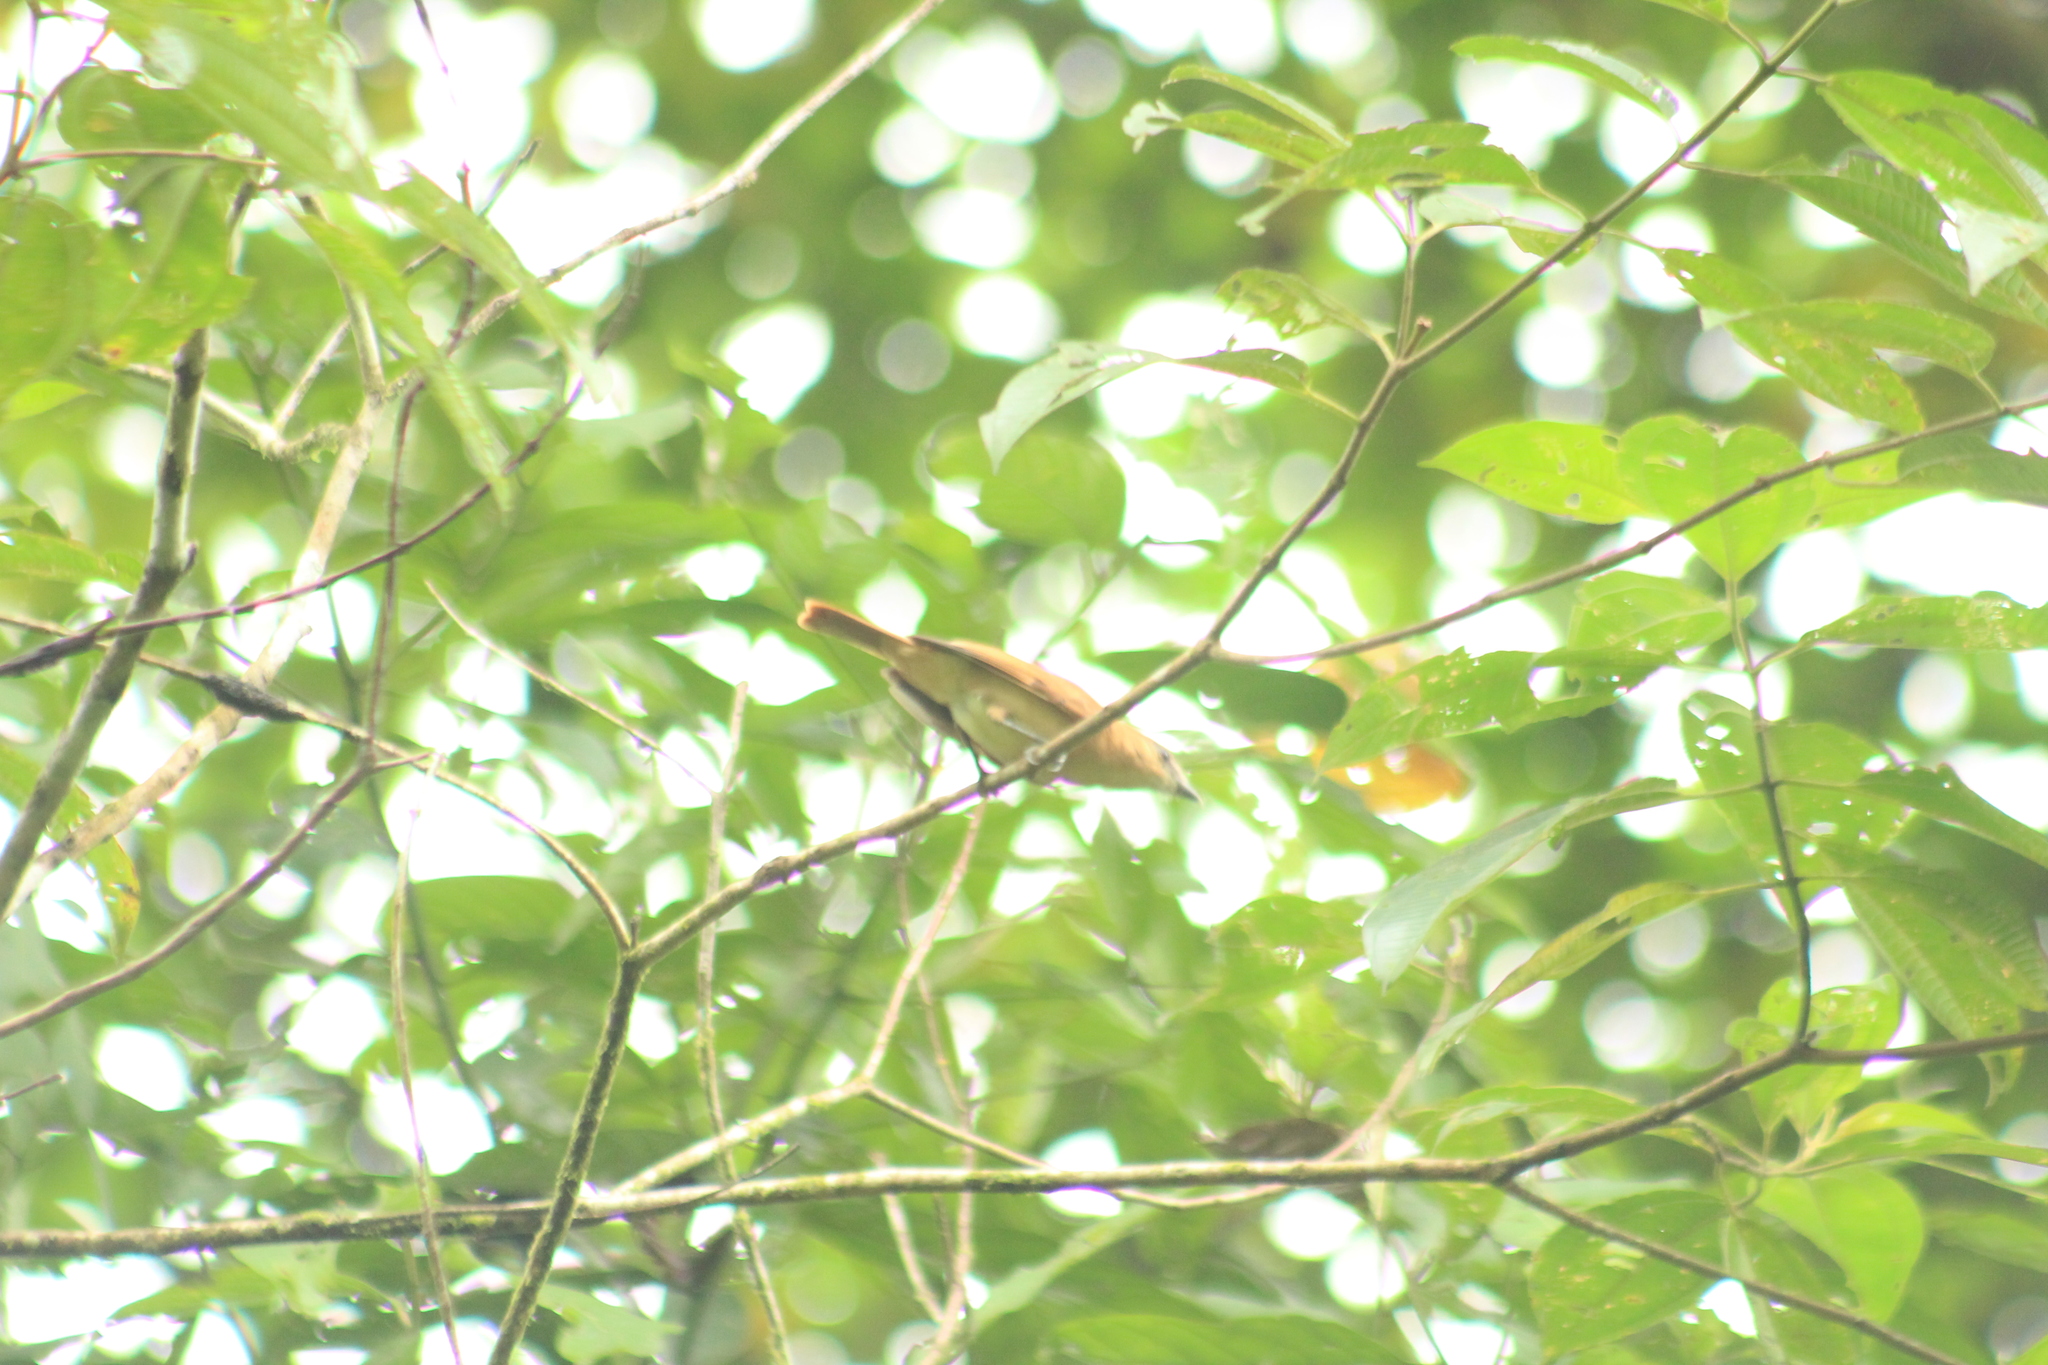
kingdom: Animalia
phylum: Chordata
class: Aves
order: Passeriformes
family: Cotingidae
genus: Pachyramphus
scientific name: Pachyramphus cinnamomeus
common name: Cinnamon becard
